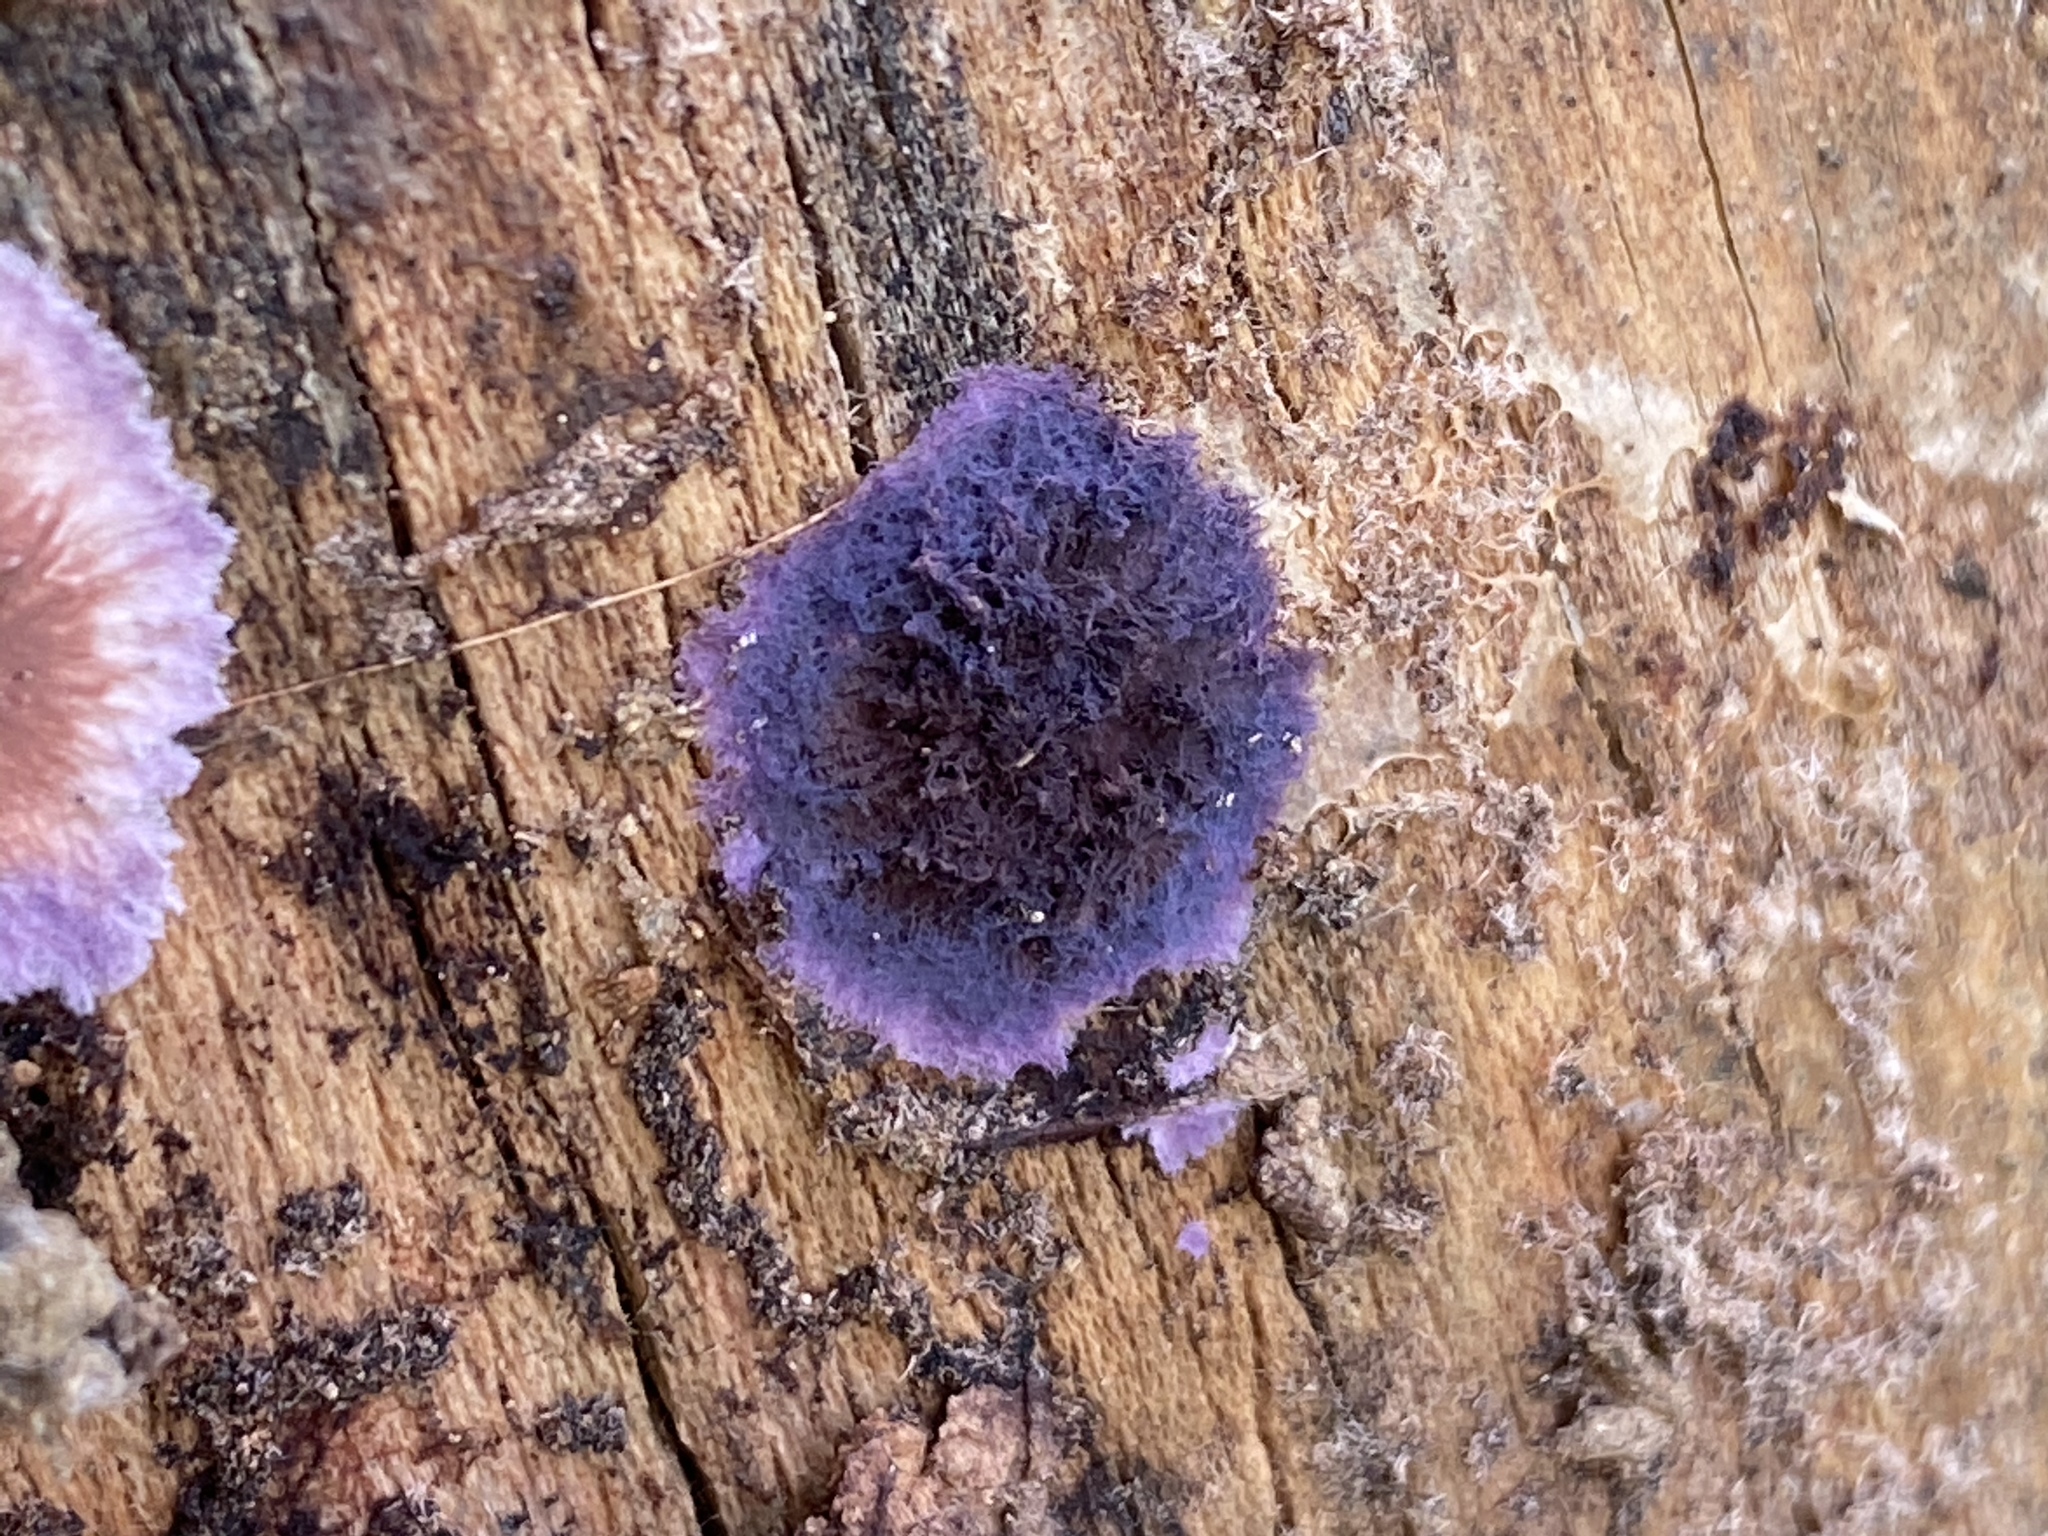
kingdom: Fungi
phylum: Basidiomycota
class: Agaricomycetes
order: Corticiales
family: Punctulariaceae
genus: Punctularia
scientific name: Punctularia atropurpurascens
